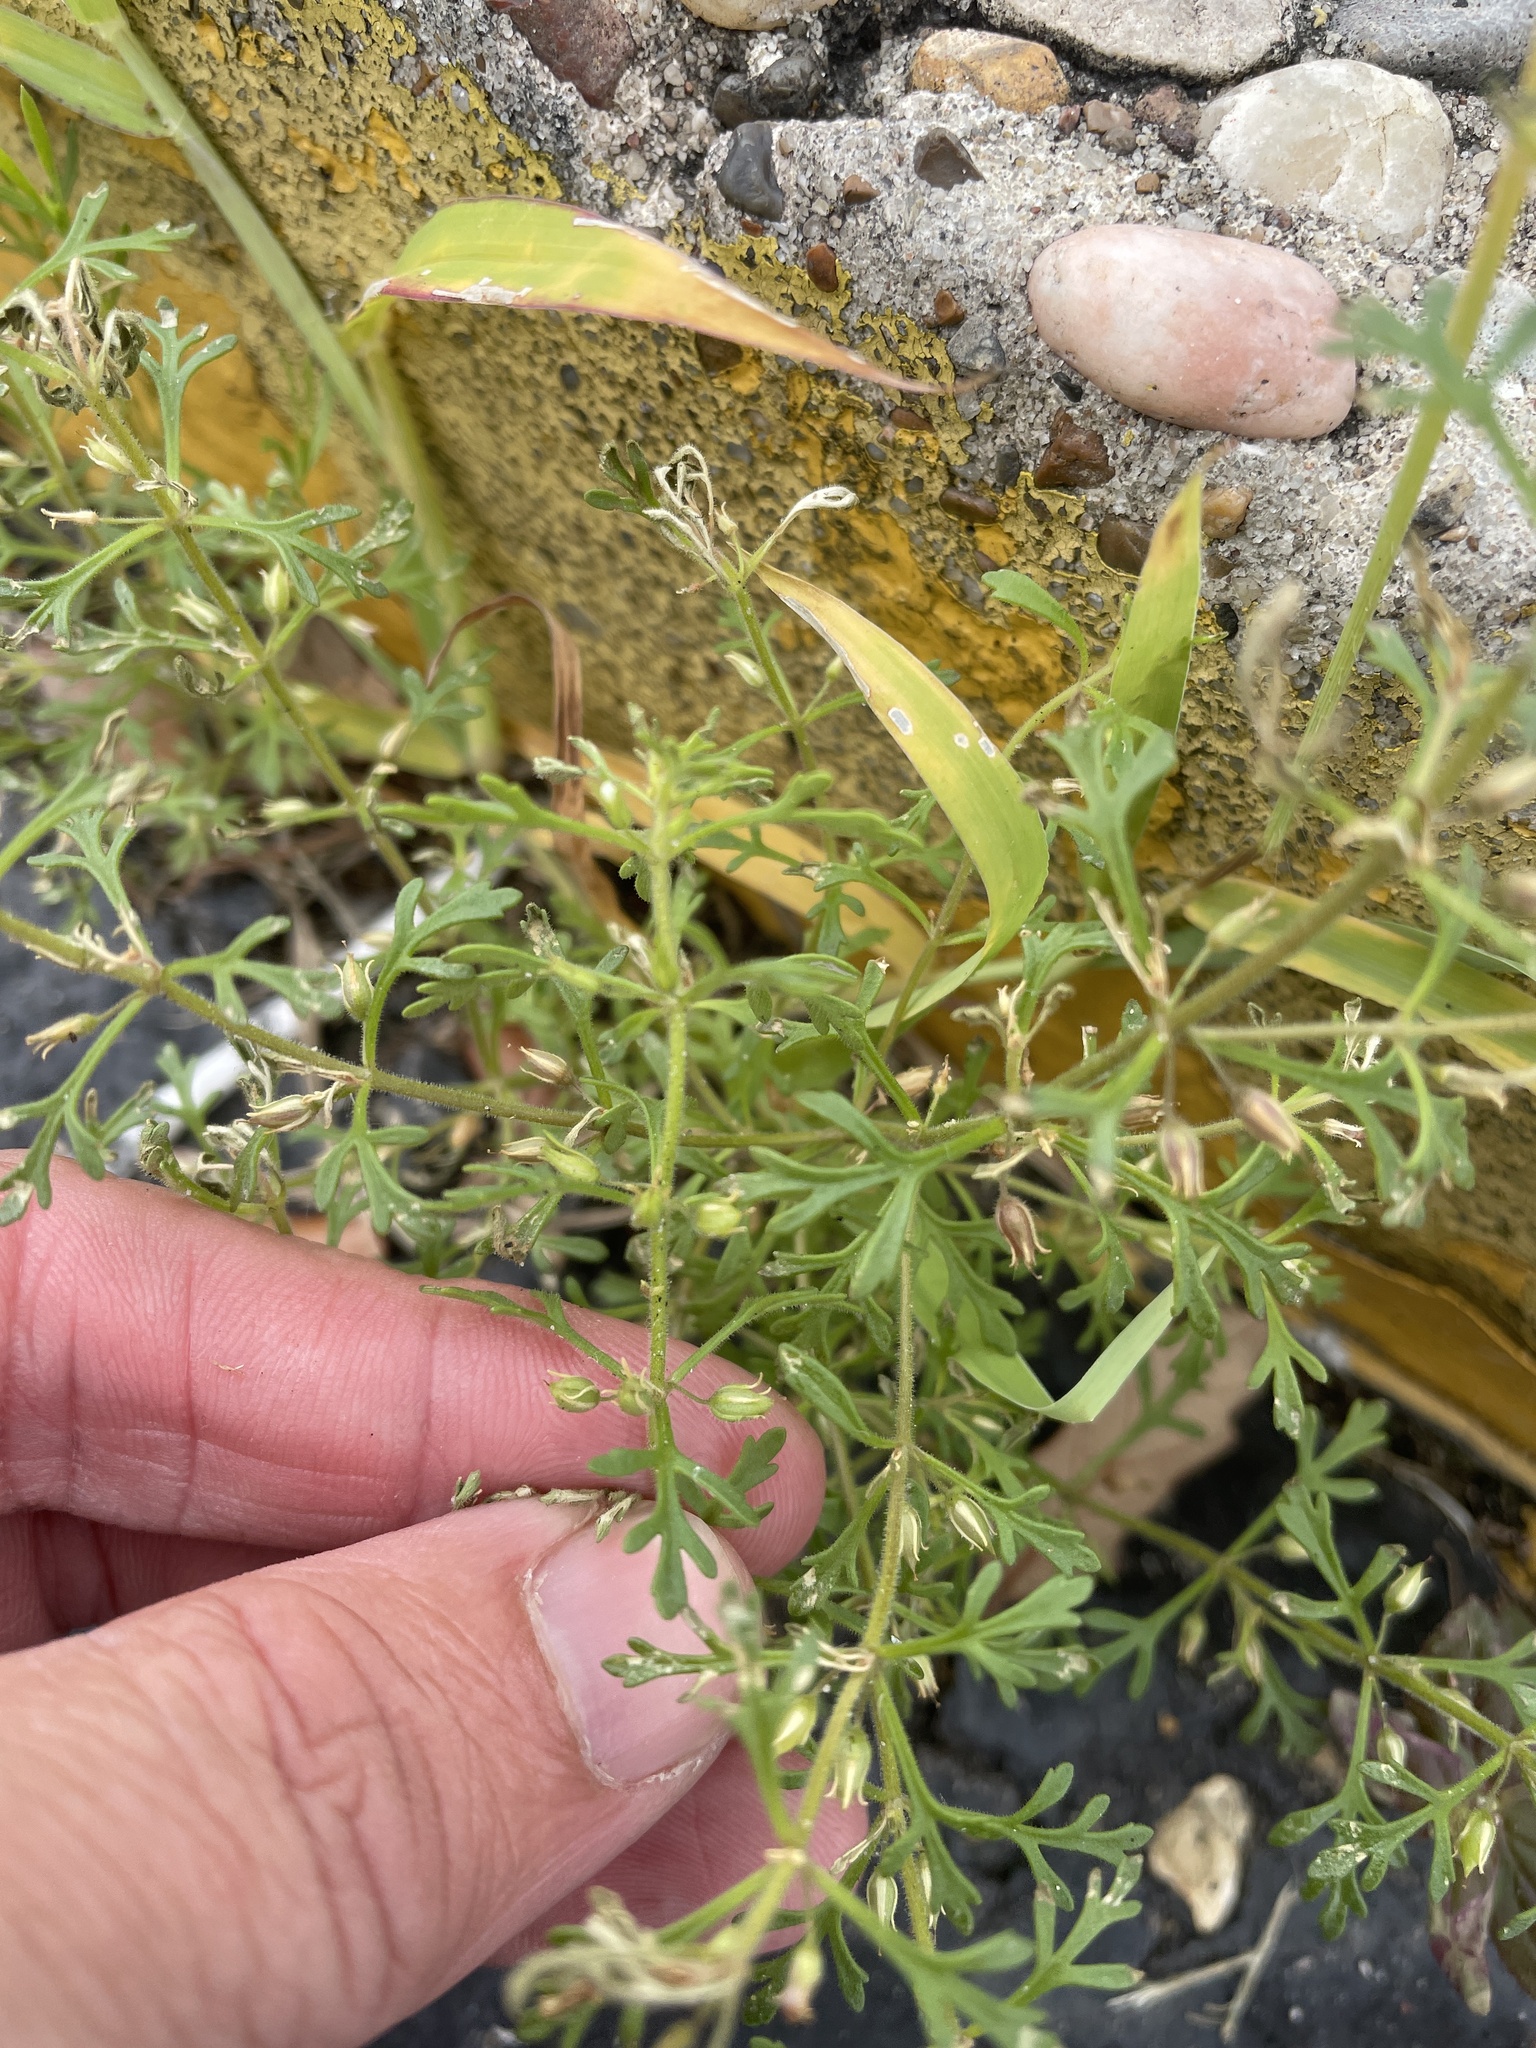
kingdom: Plantae
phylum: Tracheophyta
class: Magnoliopsida
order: Lamiales
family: Plantaginaceae
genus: Leucospora
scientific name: Leucospora multifida
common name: Narrow-leaf paleseed
